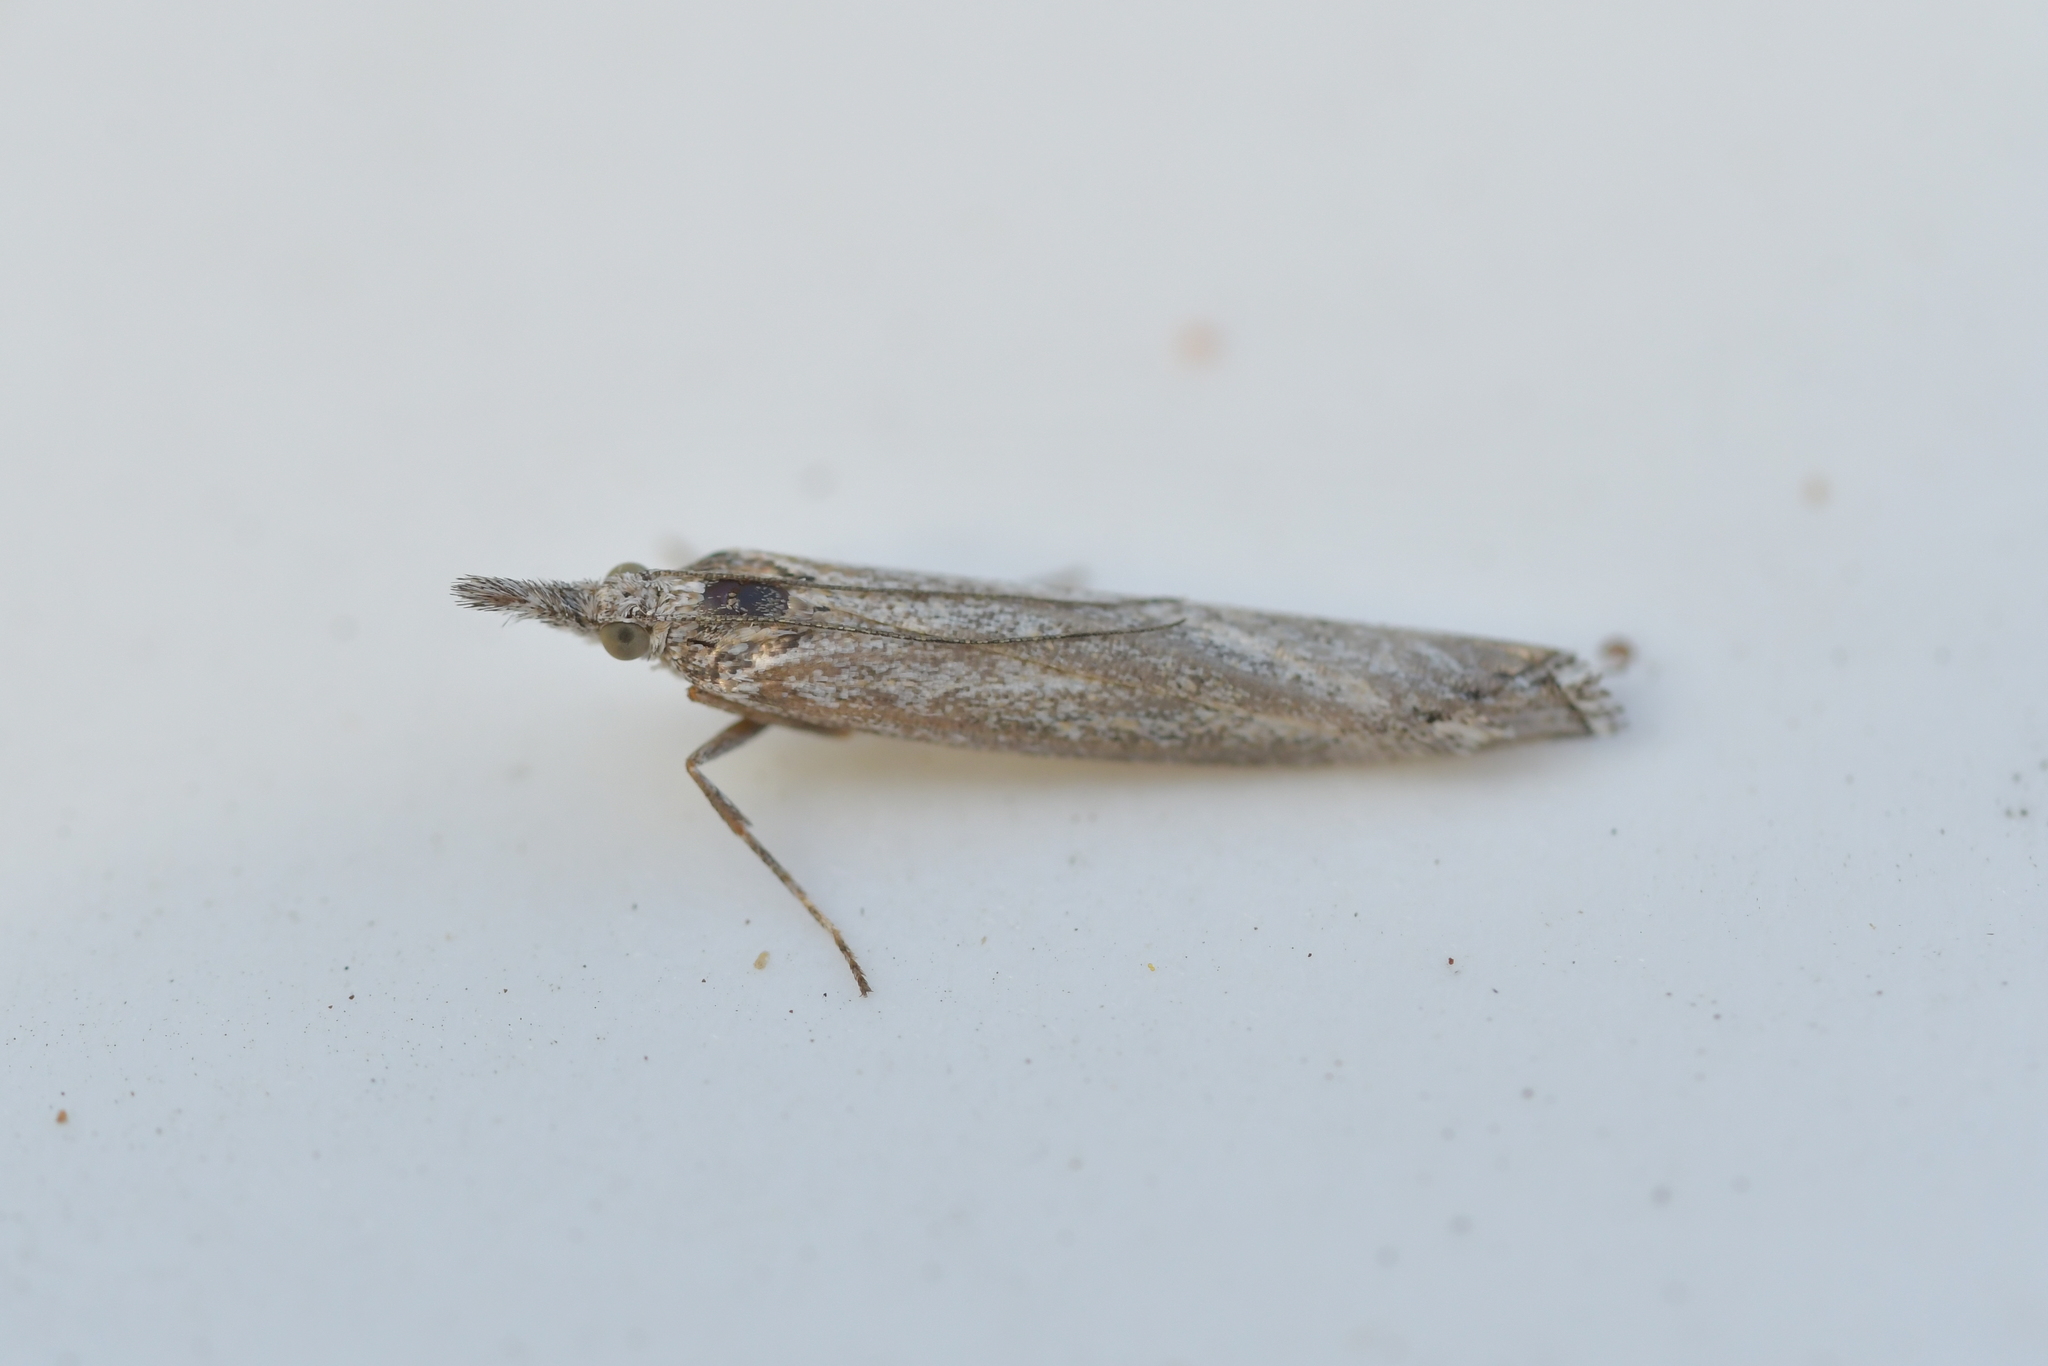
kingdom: Animalia
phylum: Arthropoda
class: Insecta
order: Lepidoptera
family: Crambidae
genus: Eudonia
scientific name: Eudonia leptalea
